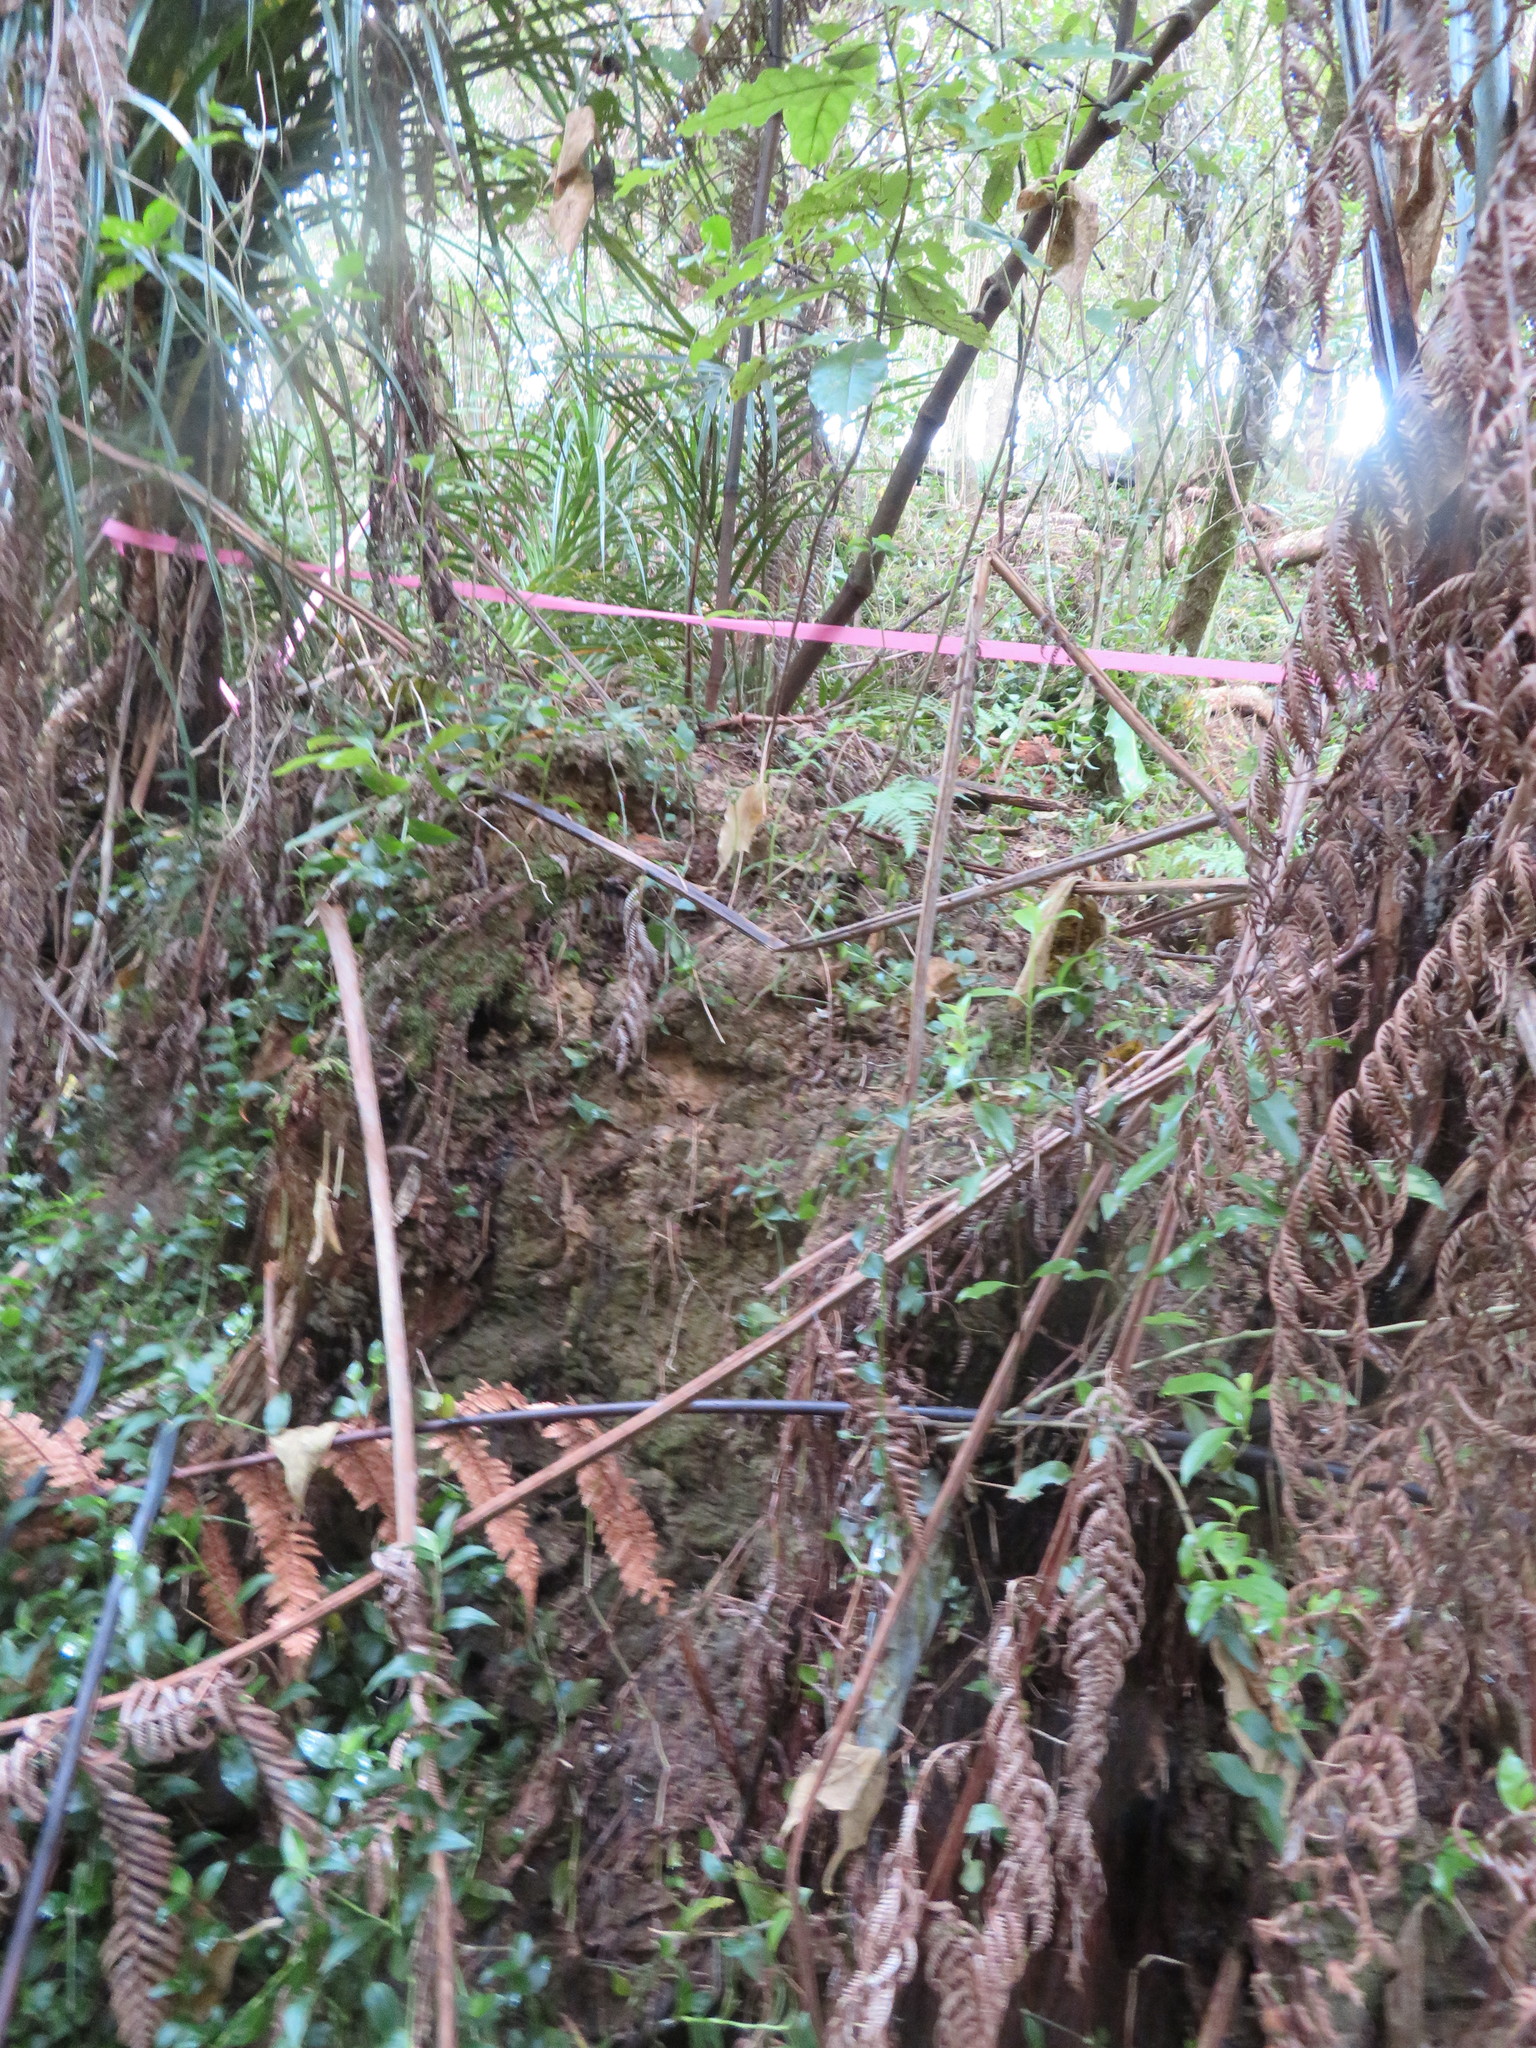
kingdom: Plantae
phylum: Tracheophyta
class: Liliopsida
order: Commelinales
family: Commelinaceae
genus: Tradescantia
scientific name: Tradescantia fluminensis
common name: Wandering-jew
